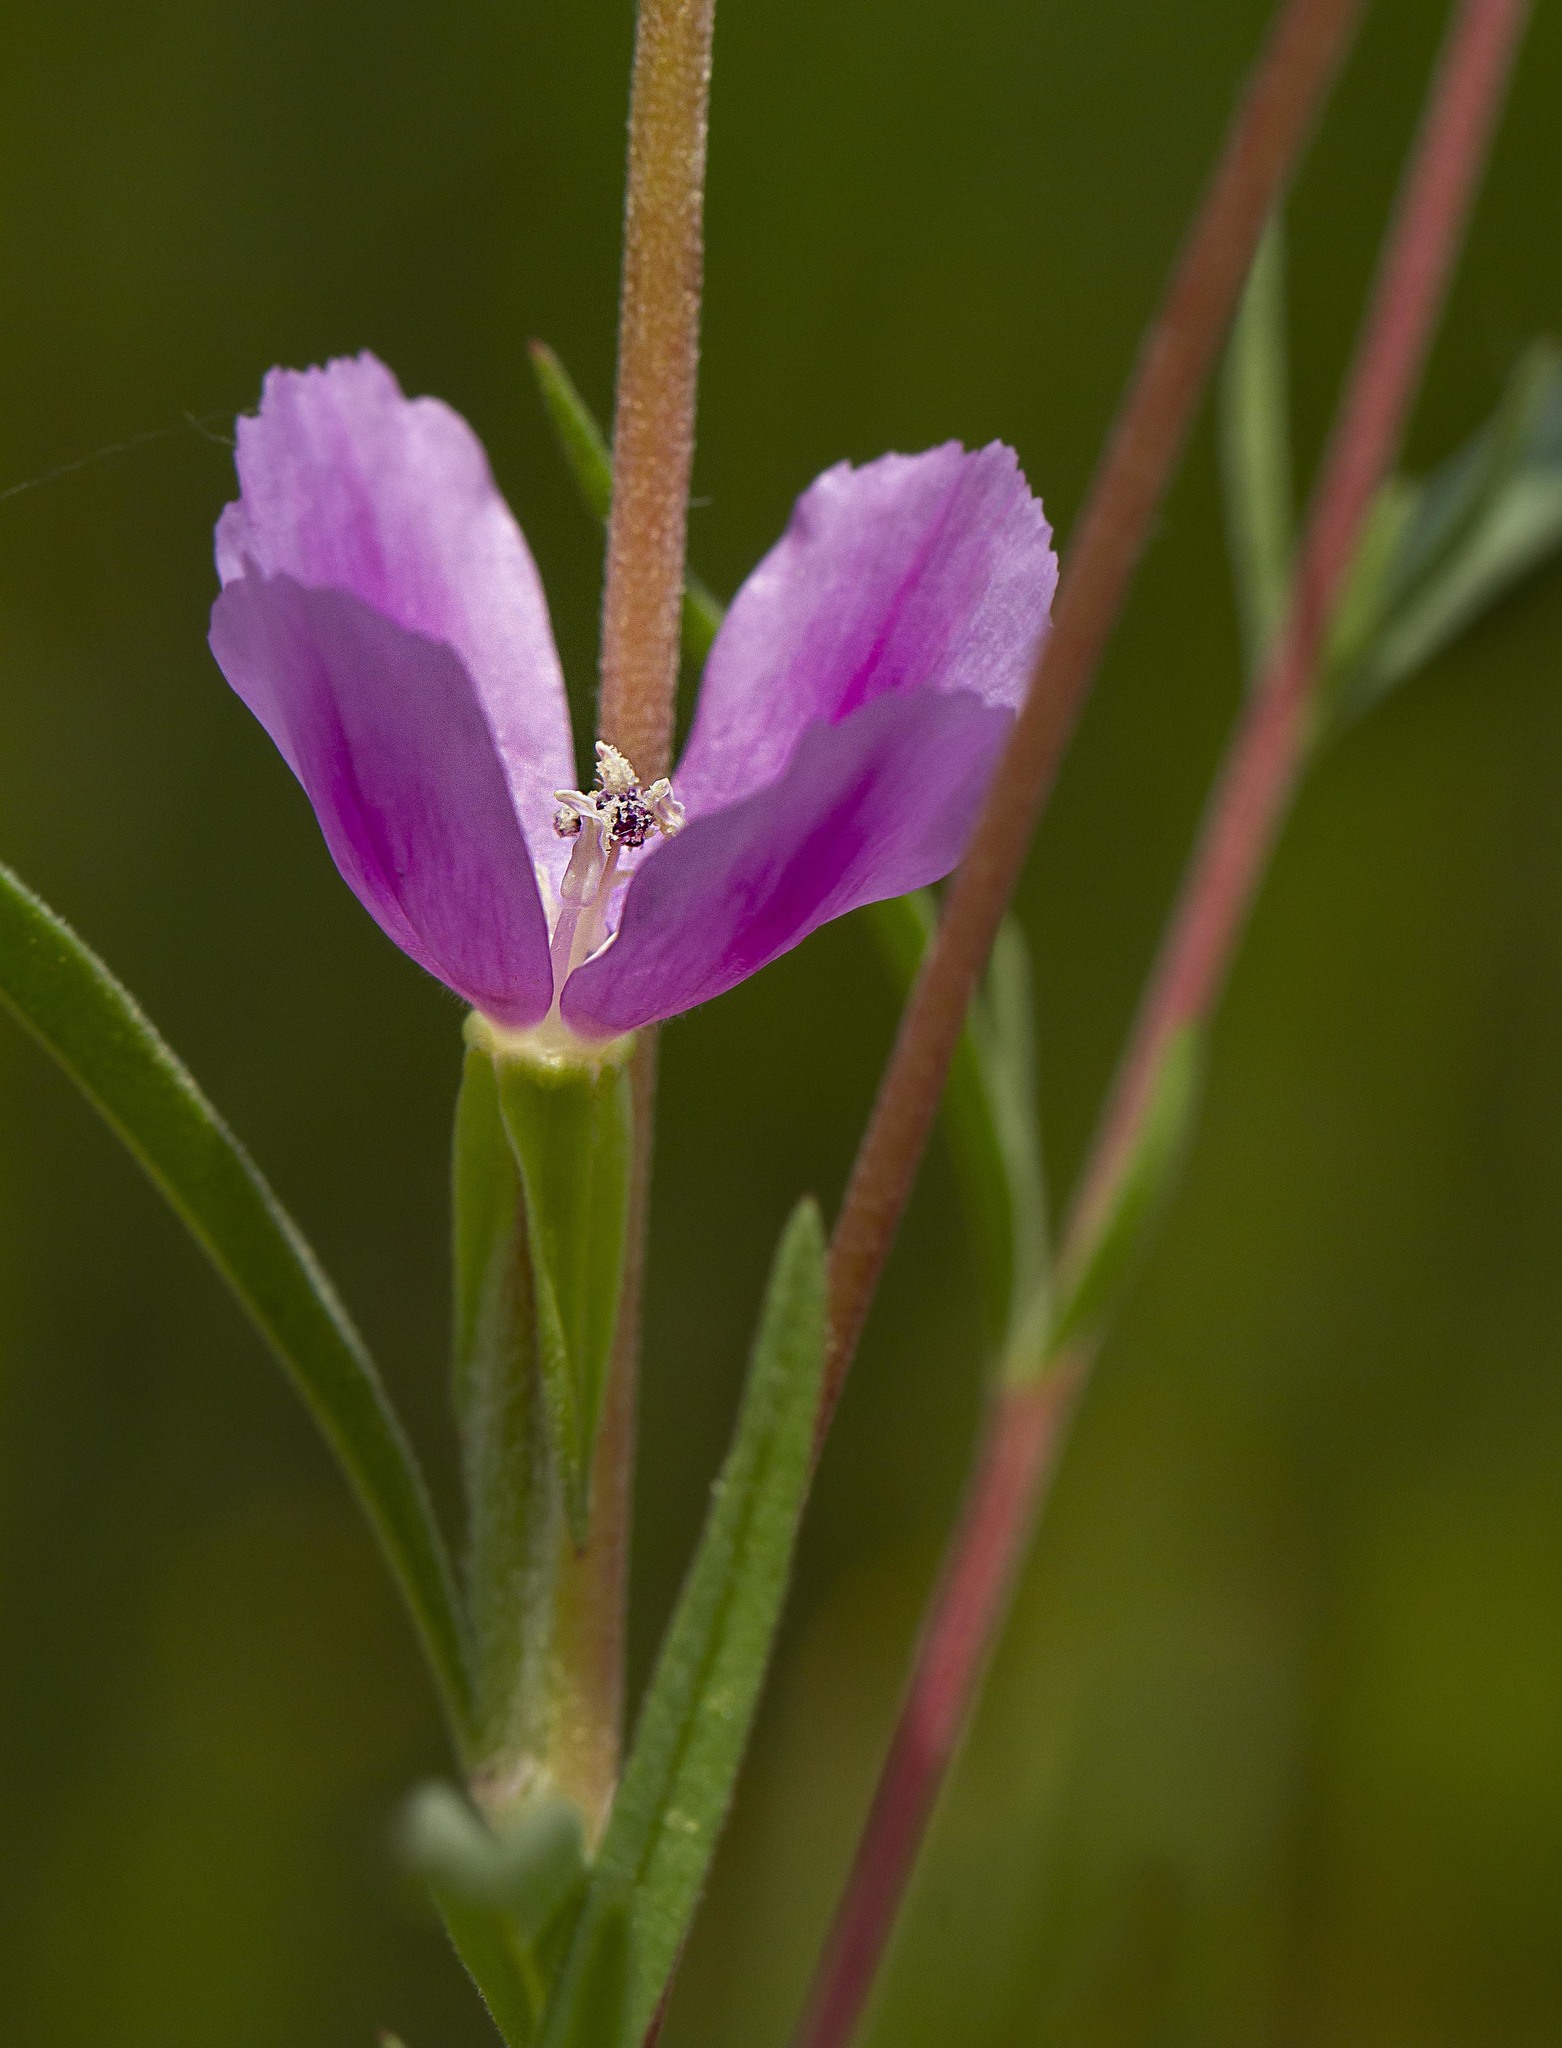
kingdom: Plantae
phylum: Tracheophyta
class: Magnoliopsida
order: Myrtales
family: Onagraceae
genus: Clarkia
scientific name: Clarkia purpurea
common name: Purple clarkia
